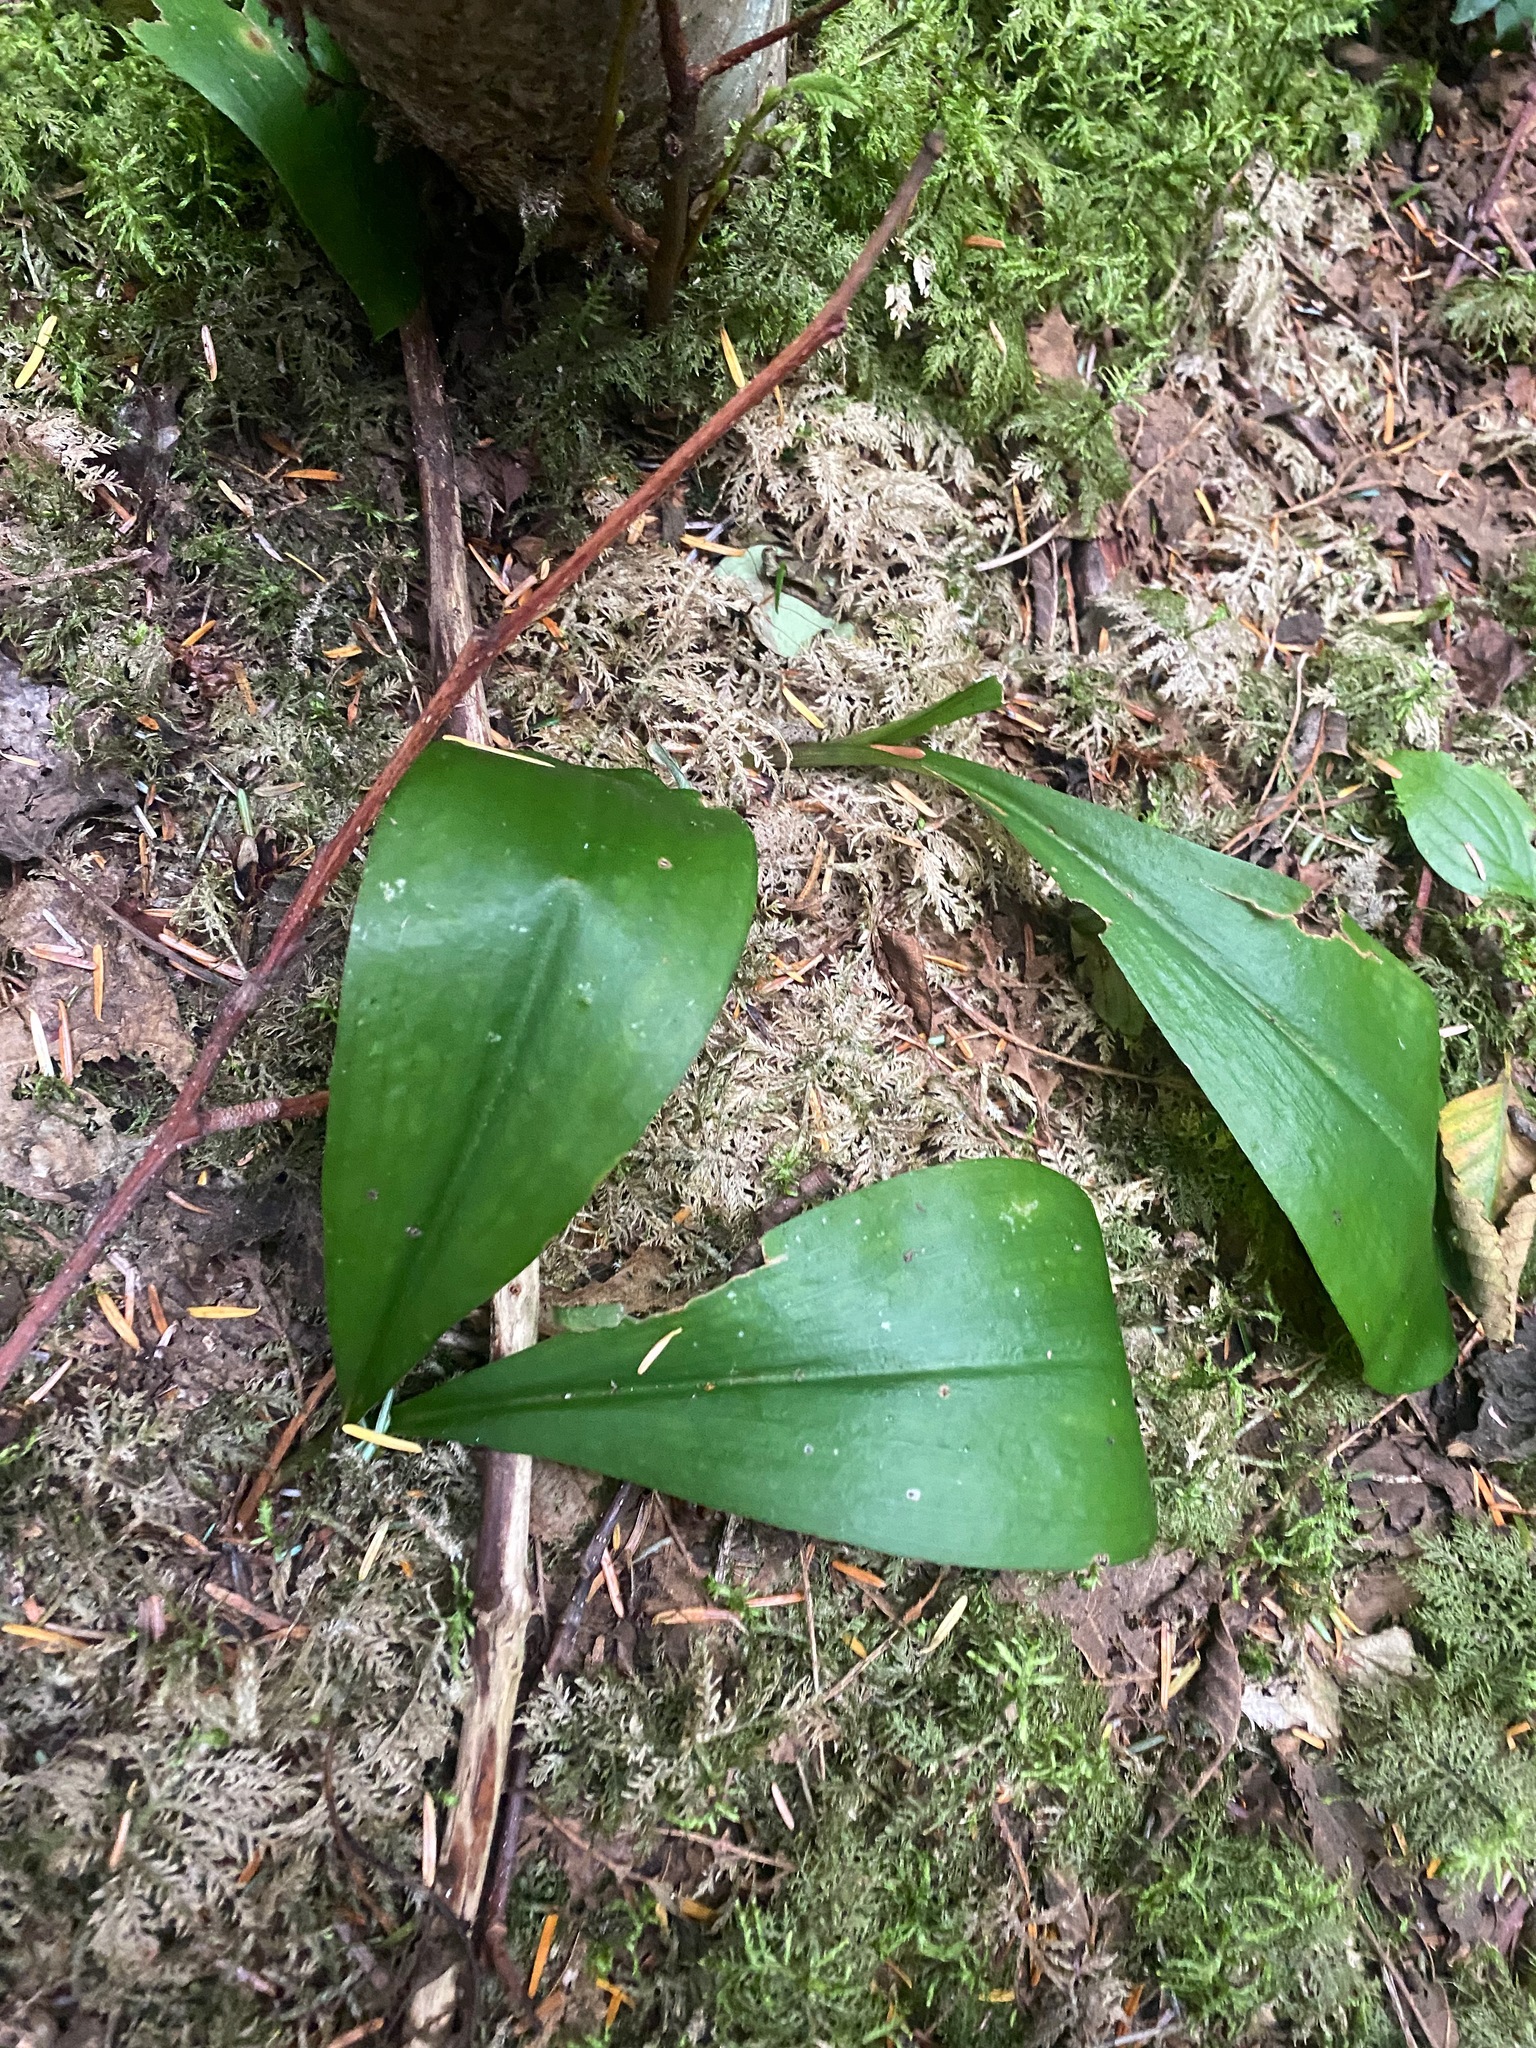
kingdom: Plantae
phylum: Tracheophyta
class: Liliopsida
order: Liliales
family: Liliaceae
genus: Clintonia
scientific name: Clintonia uniflora
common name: Queen's cup
